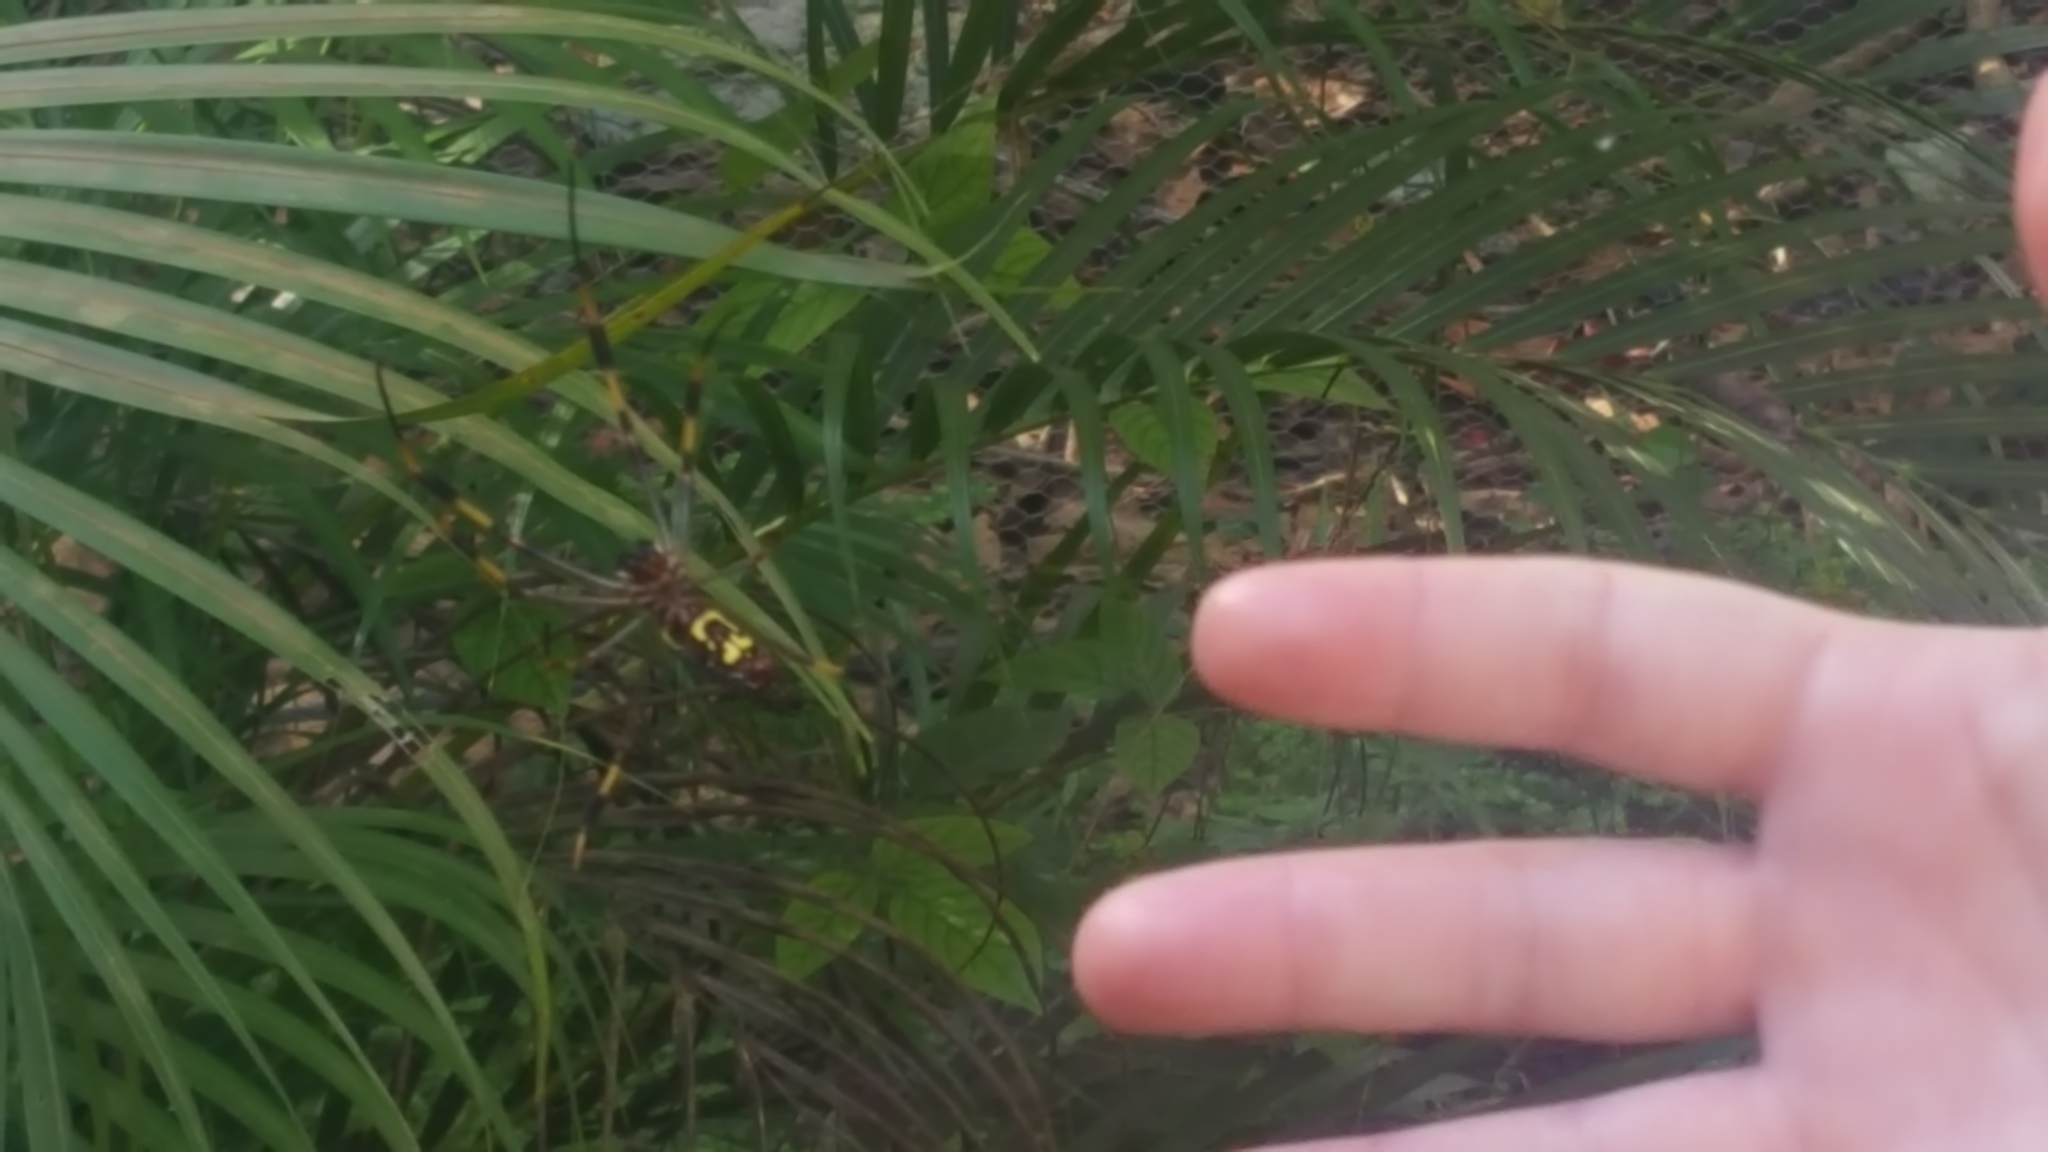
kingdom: Animalia
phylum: Arthropoda
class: Arachnida
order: Araneae
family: Araneidae
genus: Trichonephila
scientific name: Trichonephila clavipes
